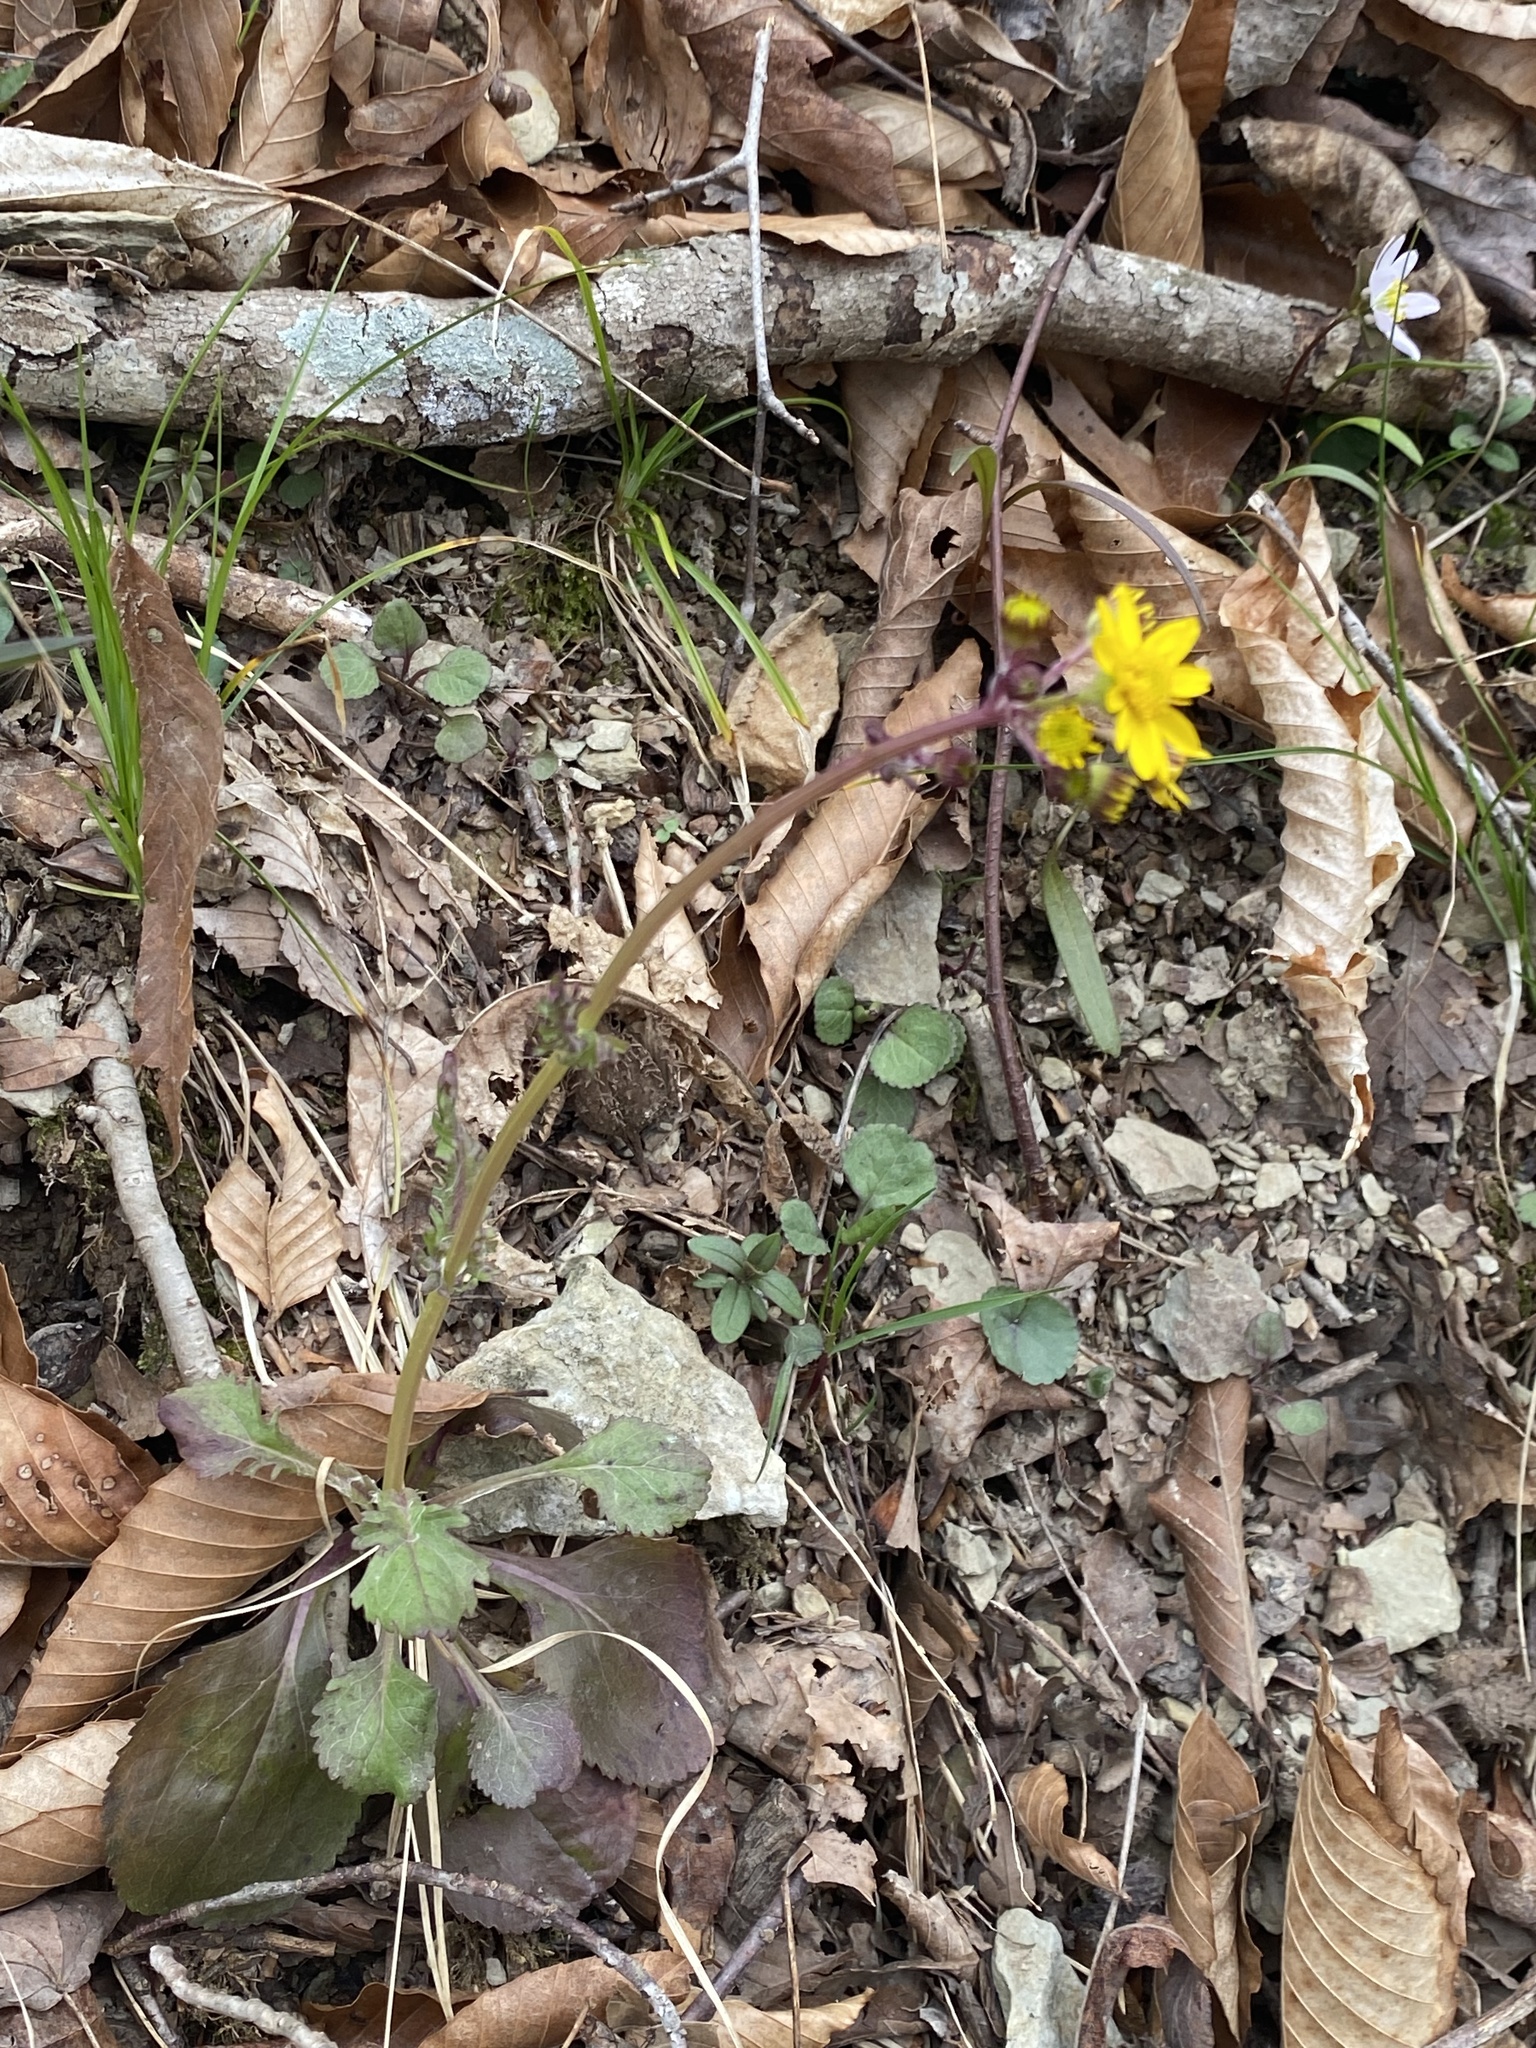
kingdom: Plantae
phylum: Tracheophyta
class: Magnoliopsida
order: Asterales
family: Asteraceae
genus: Packera
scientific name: Packera obovata
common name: Round-leaf ragwort
